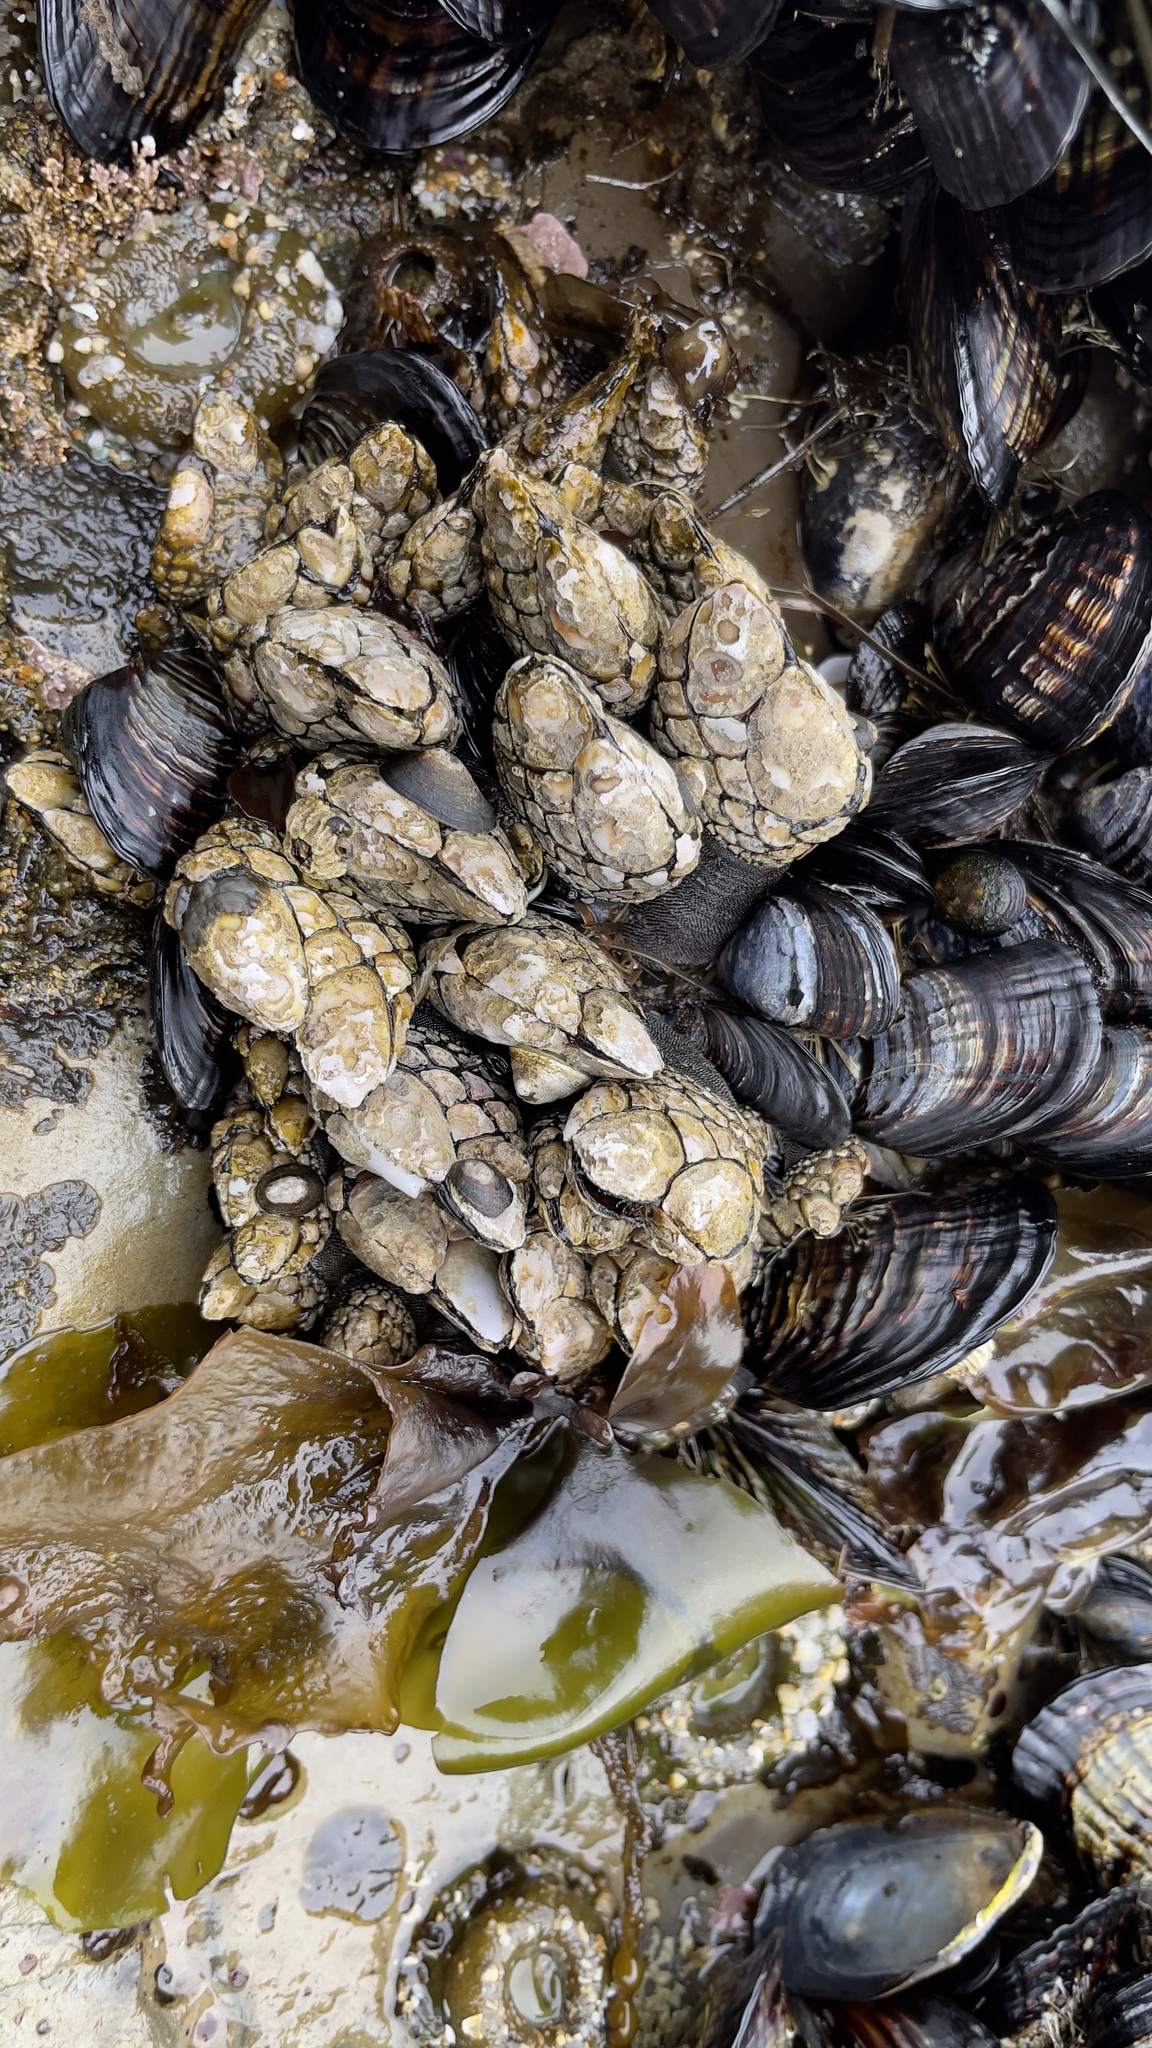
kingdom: Animalia
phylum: Arthropoda
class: Maxillopoda
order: Pedunculata
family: Pollicipedidae
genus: Pollicipes
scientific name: Pollicipes polymerus
